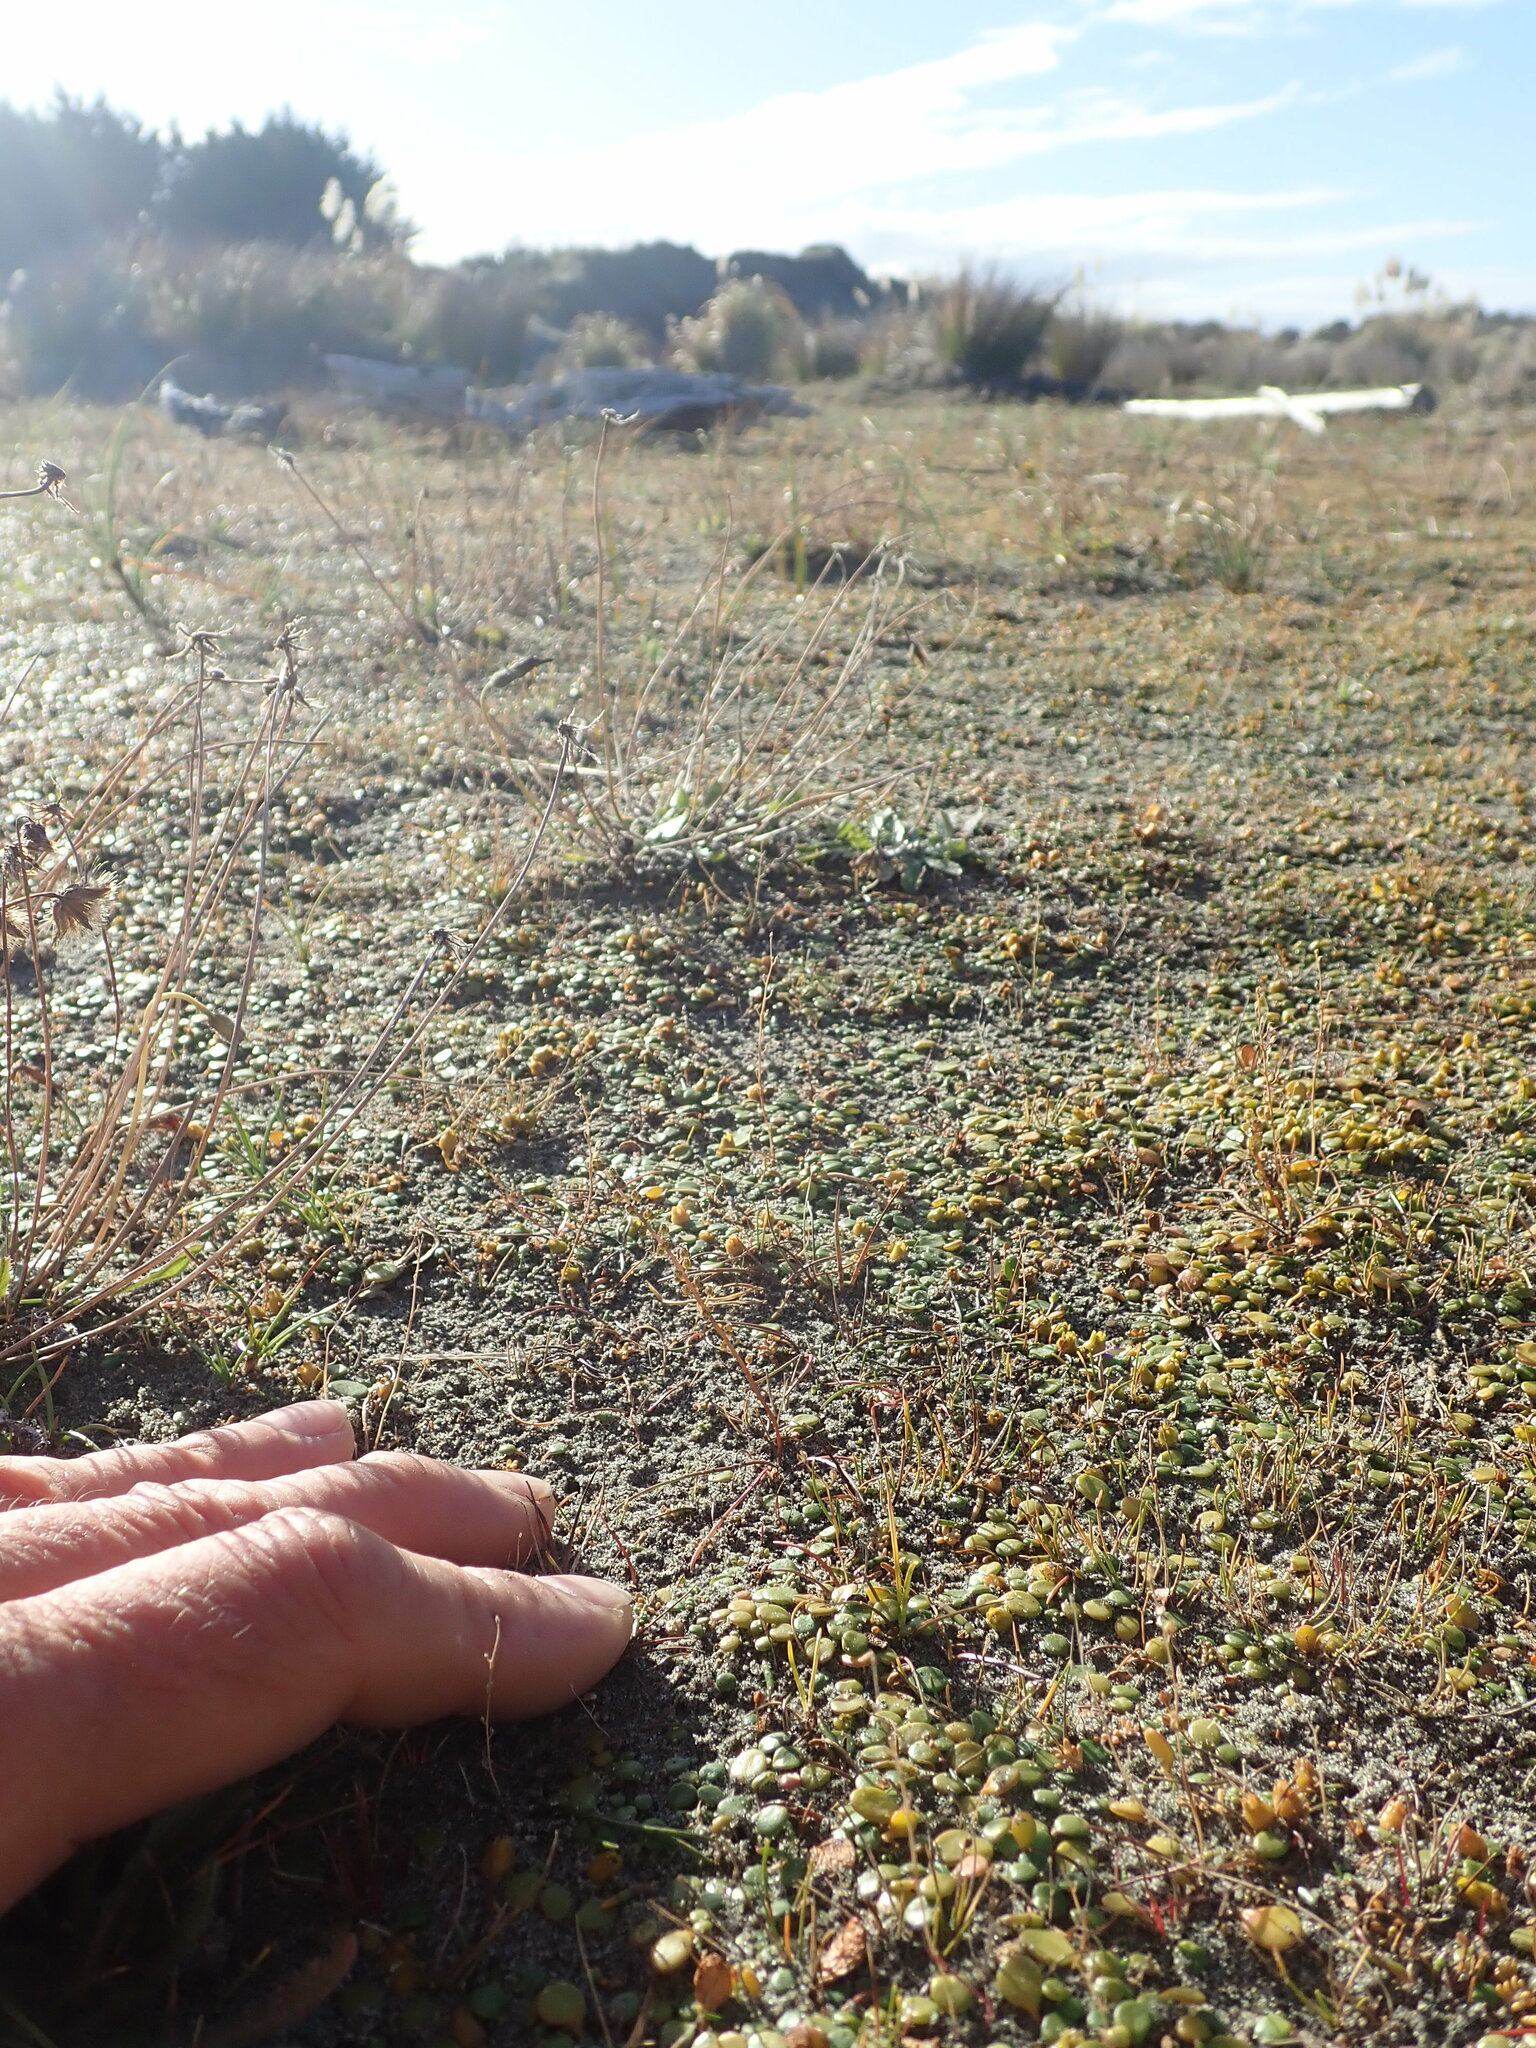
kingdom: Plantae
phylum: Tracheophyta
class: Liliopsida
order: Alismatales
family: Juncaginaceae
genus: Triglochin
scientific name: Triglochin striata
